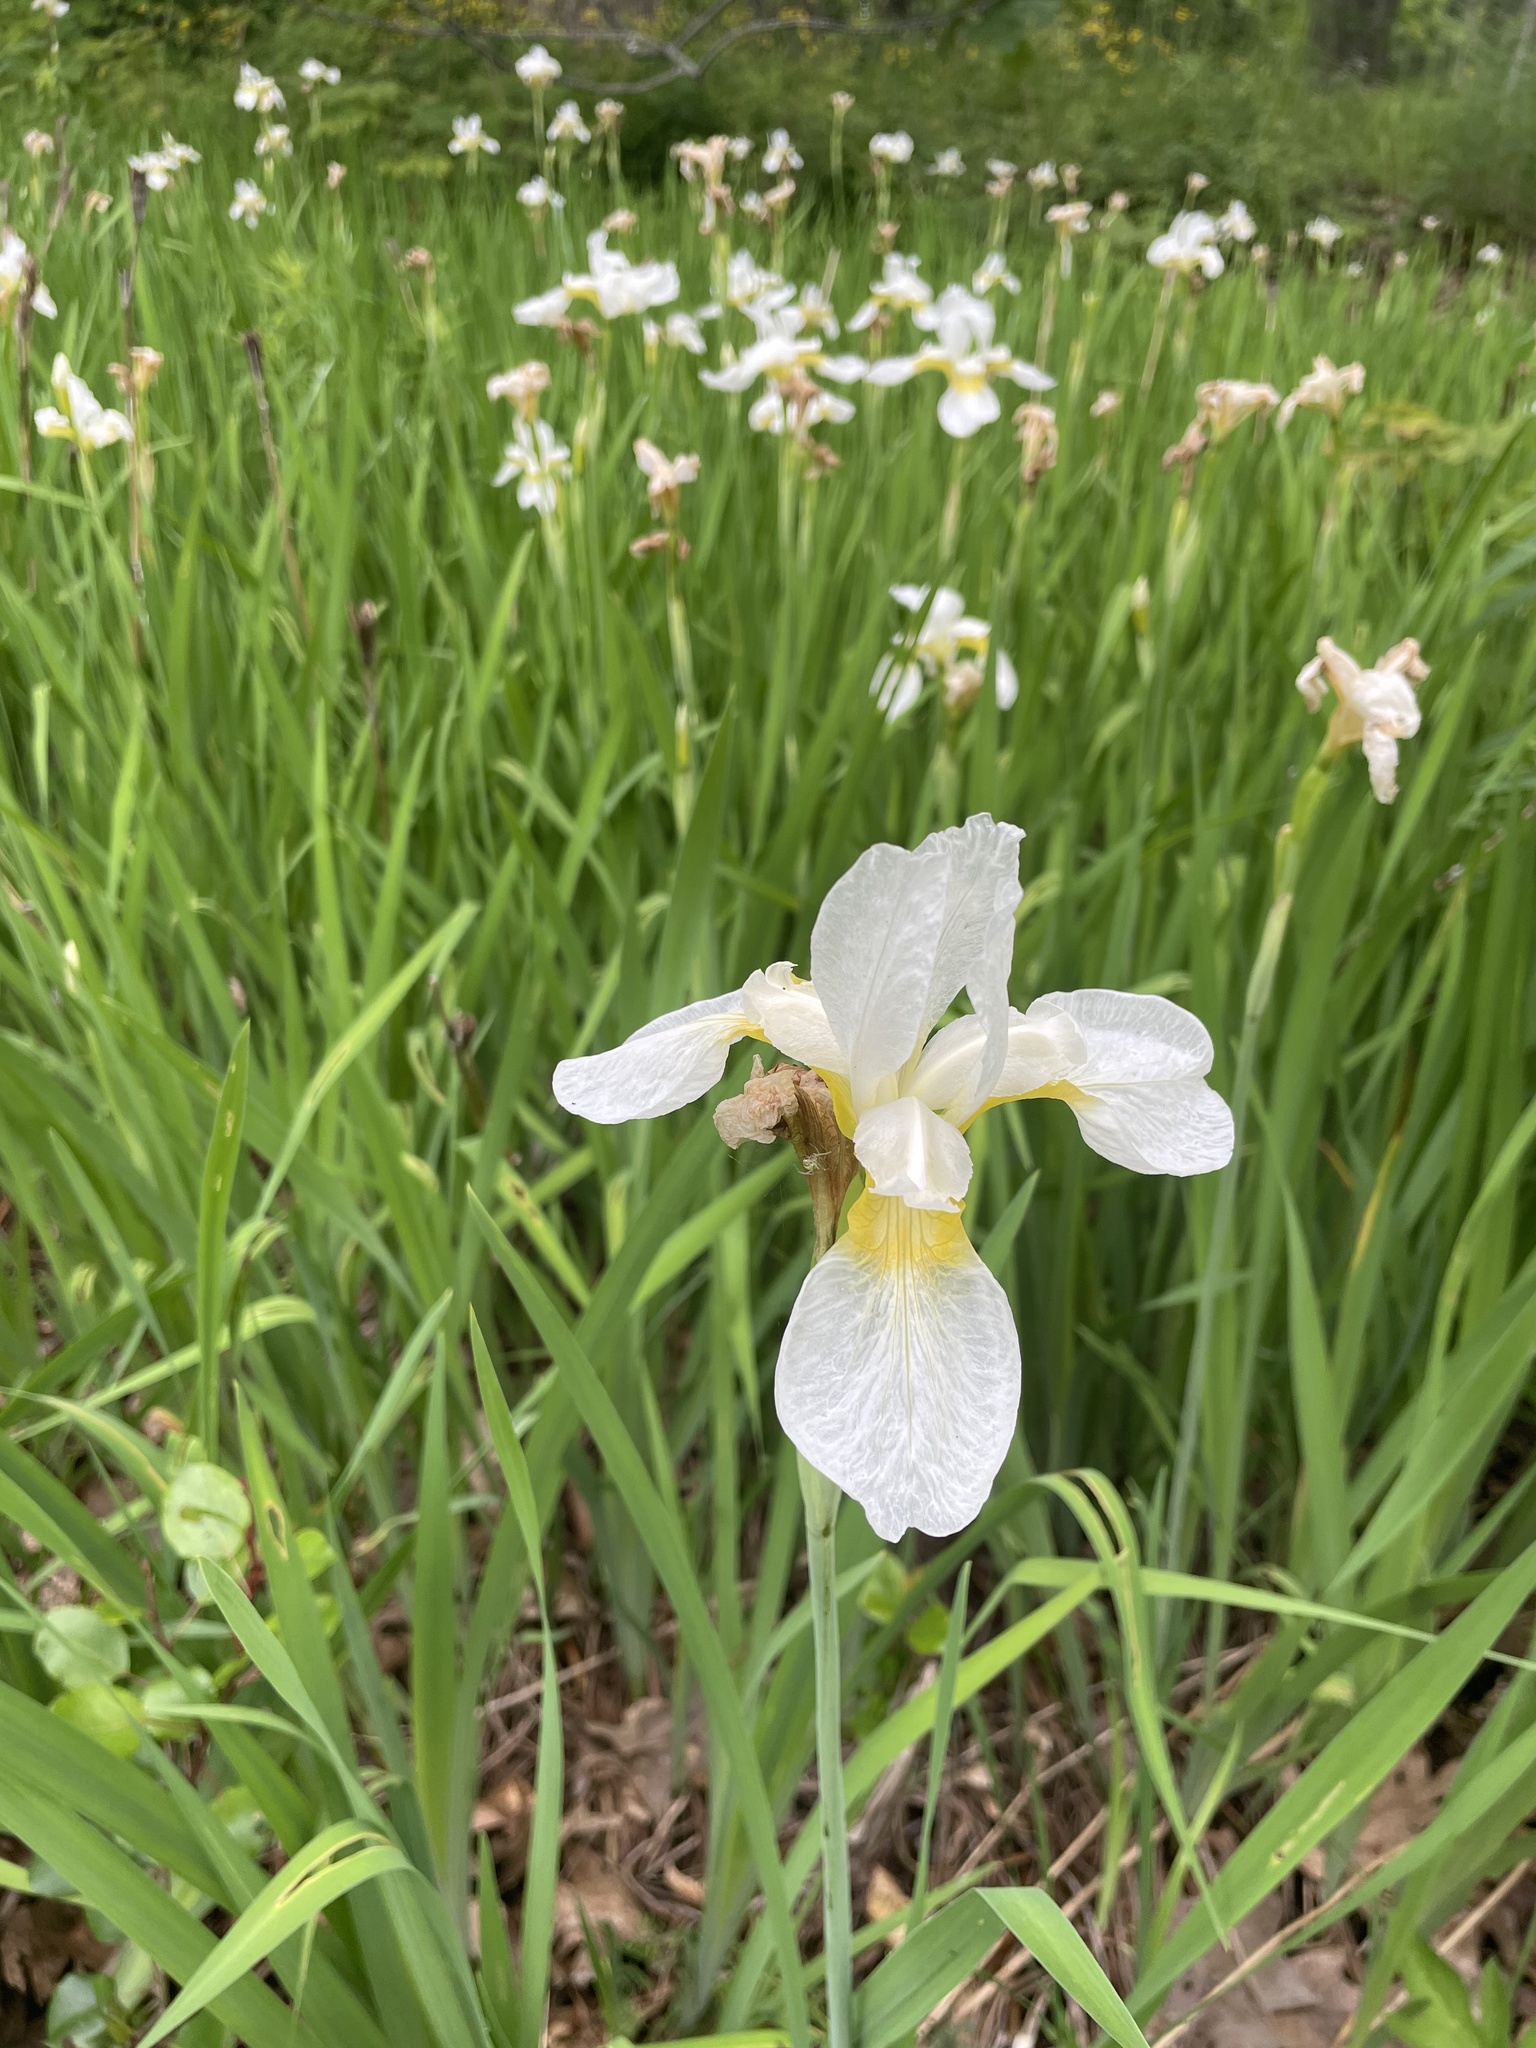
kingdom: Plantae
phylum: Tracheophyta
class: Liliopsida
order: Asparagales
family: Iridaceae
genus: Iris
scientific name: Iris sanguinea
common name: Blood iris
